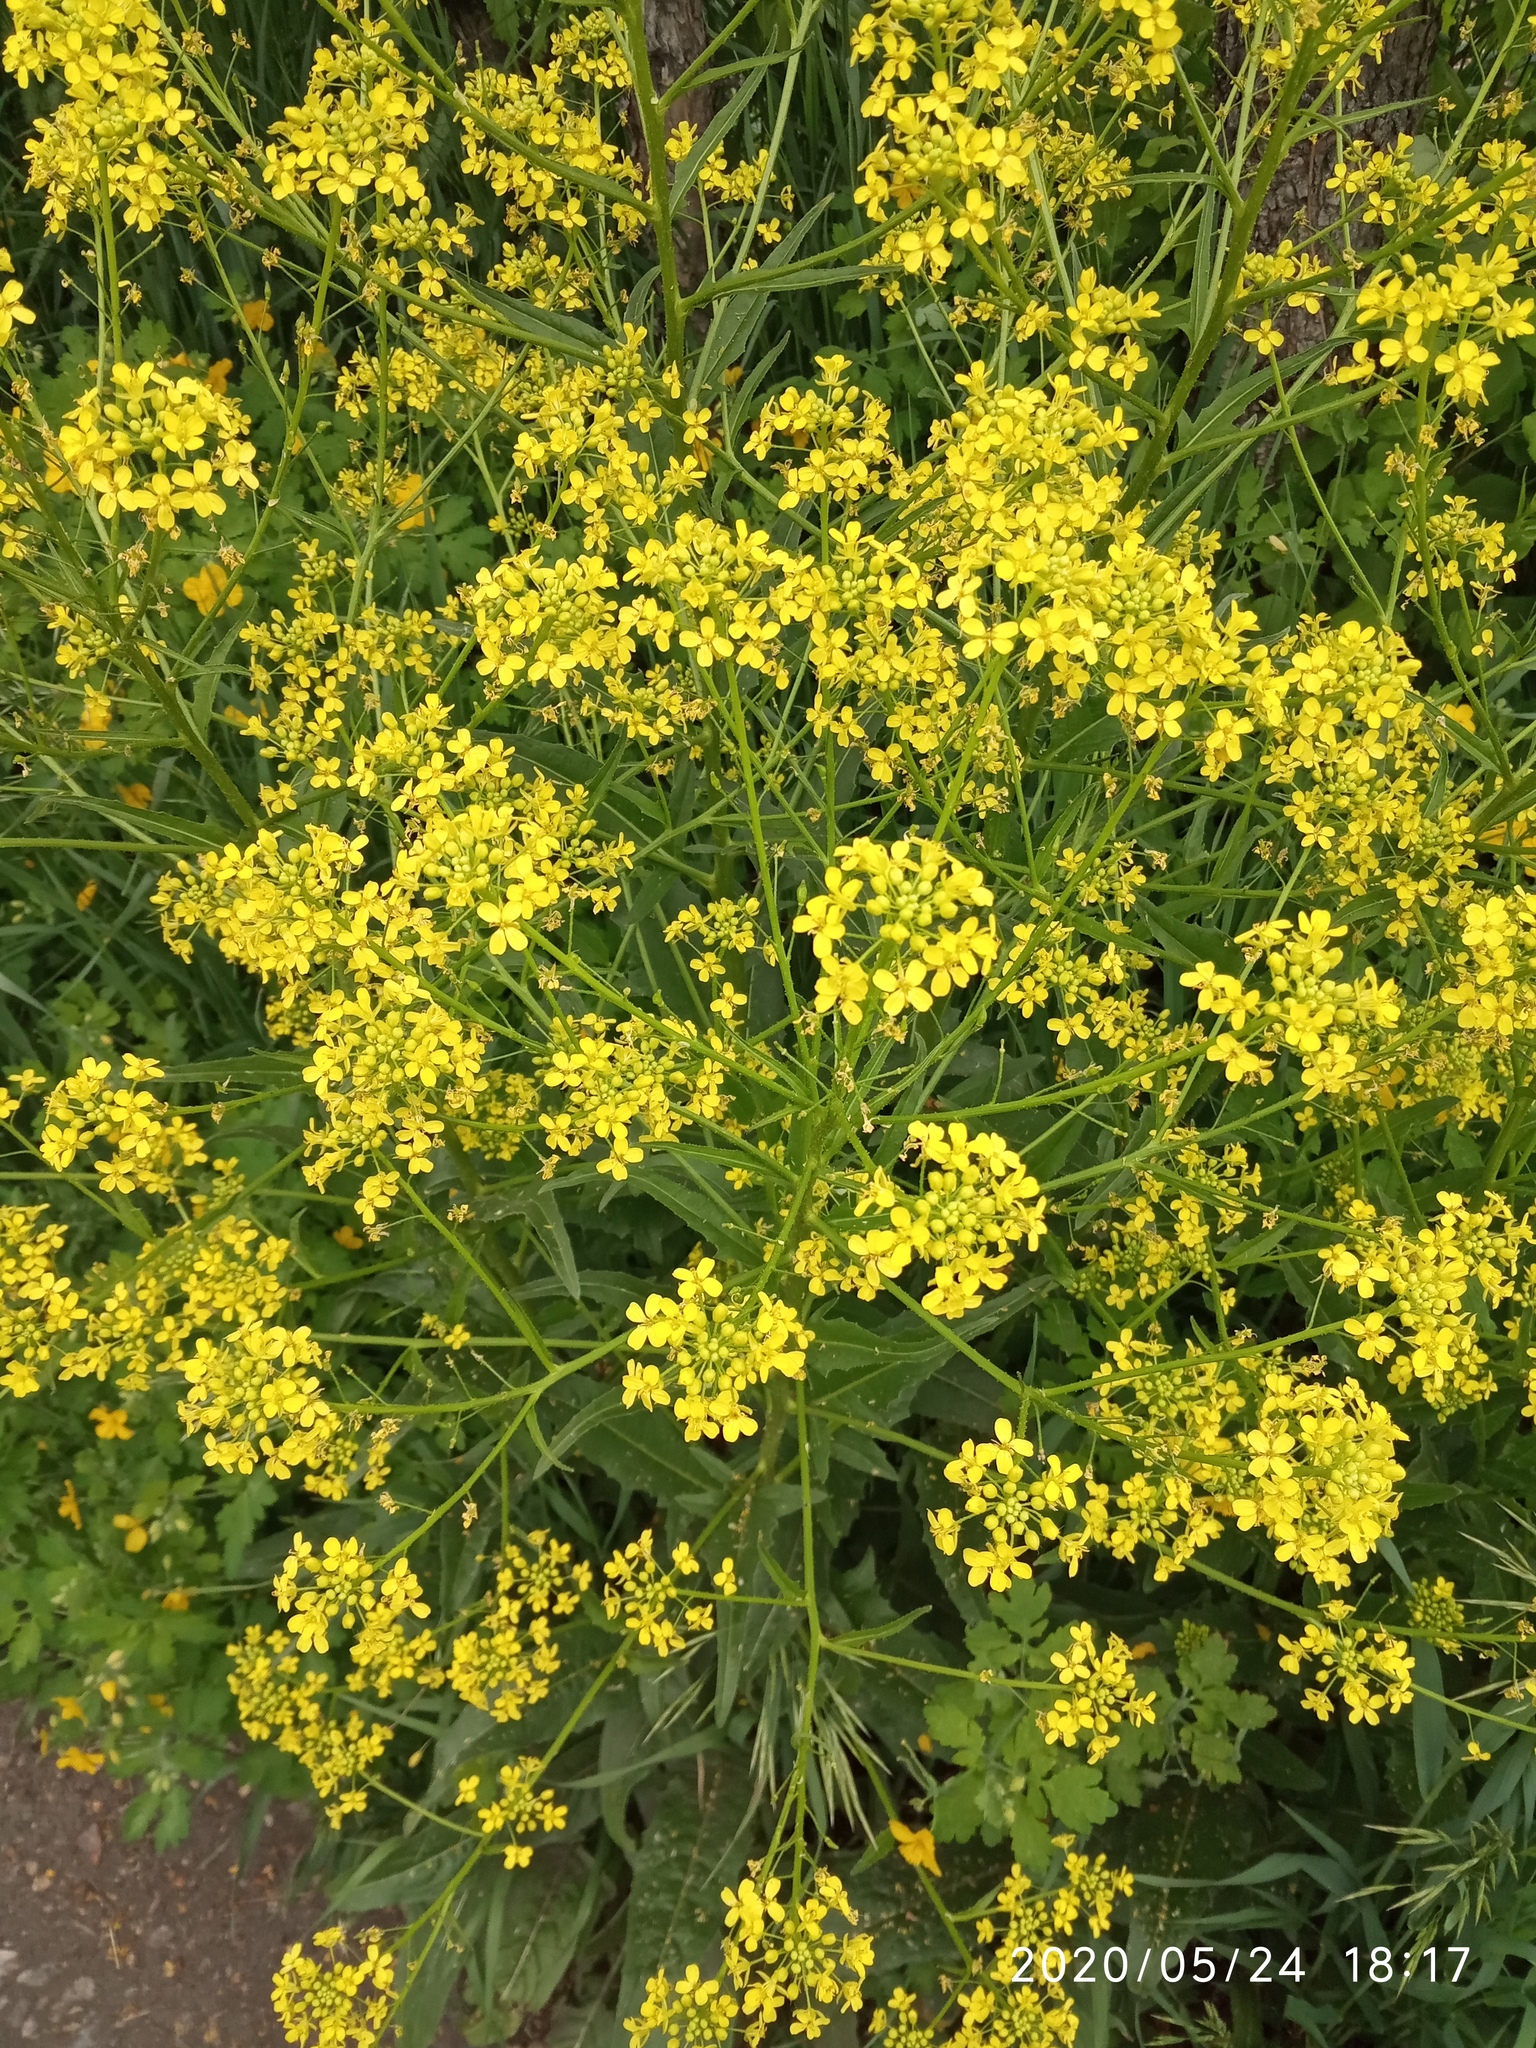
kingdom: Plantae
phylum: Tracheophyta
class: Magnoliopsida
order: Brassicales
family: Brassicaceae
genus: Bunias
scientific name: Bunias orientalis
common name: Warty-cabbage
